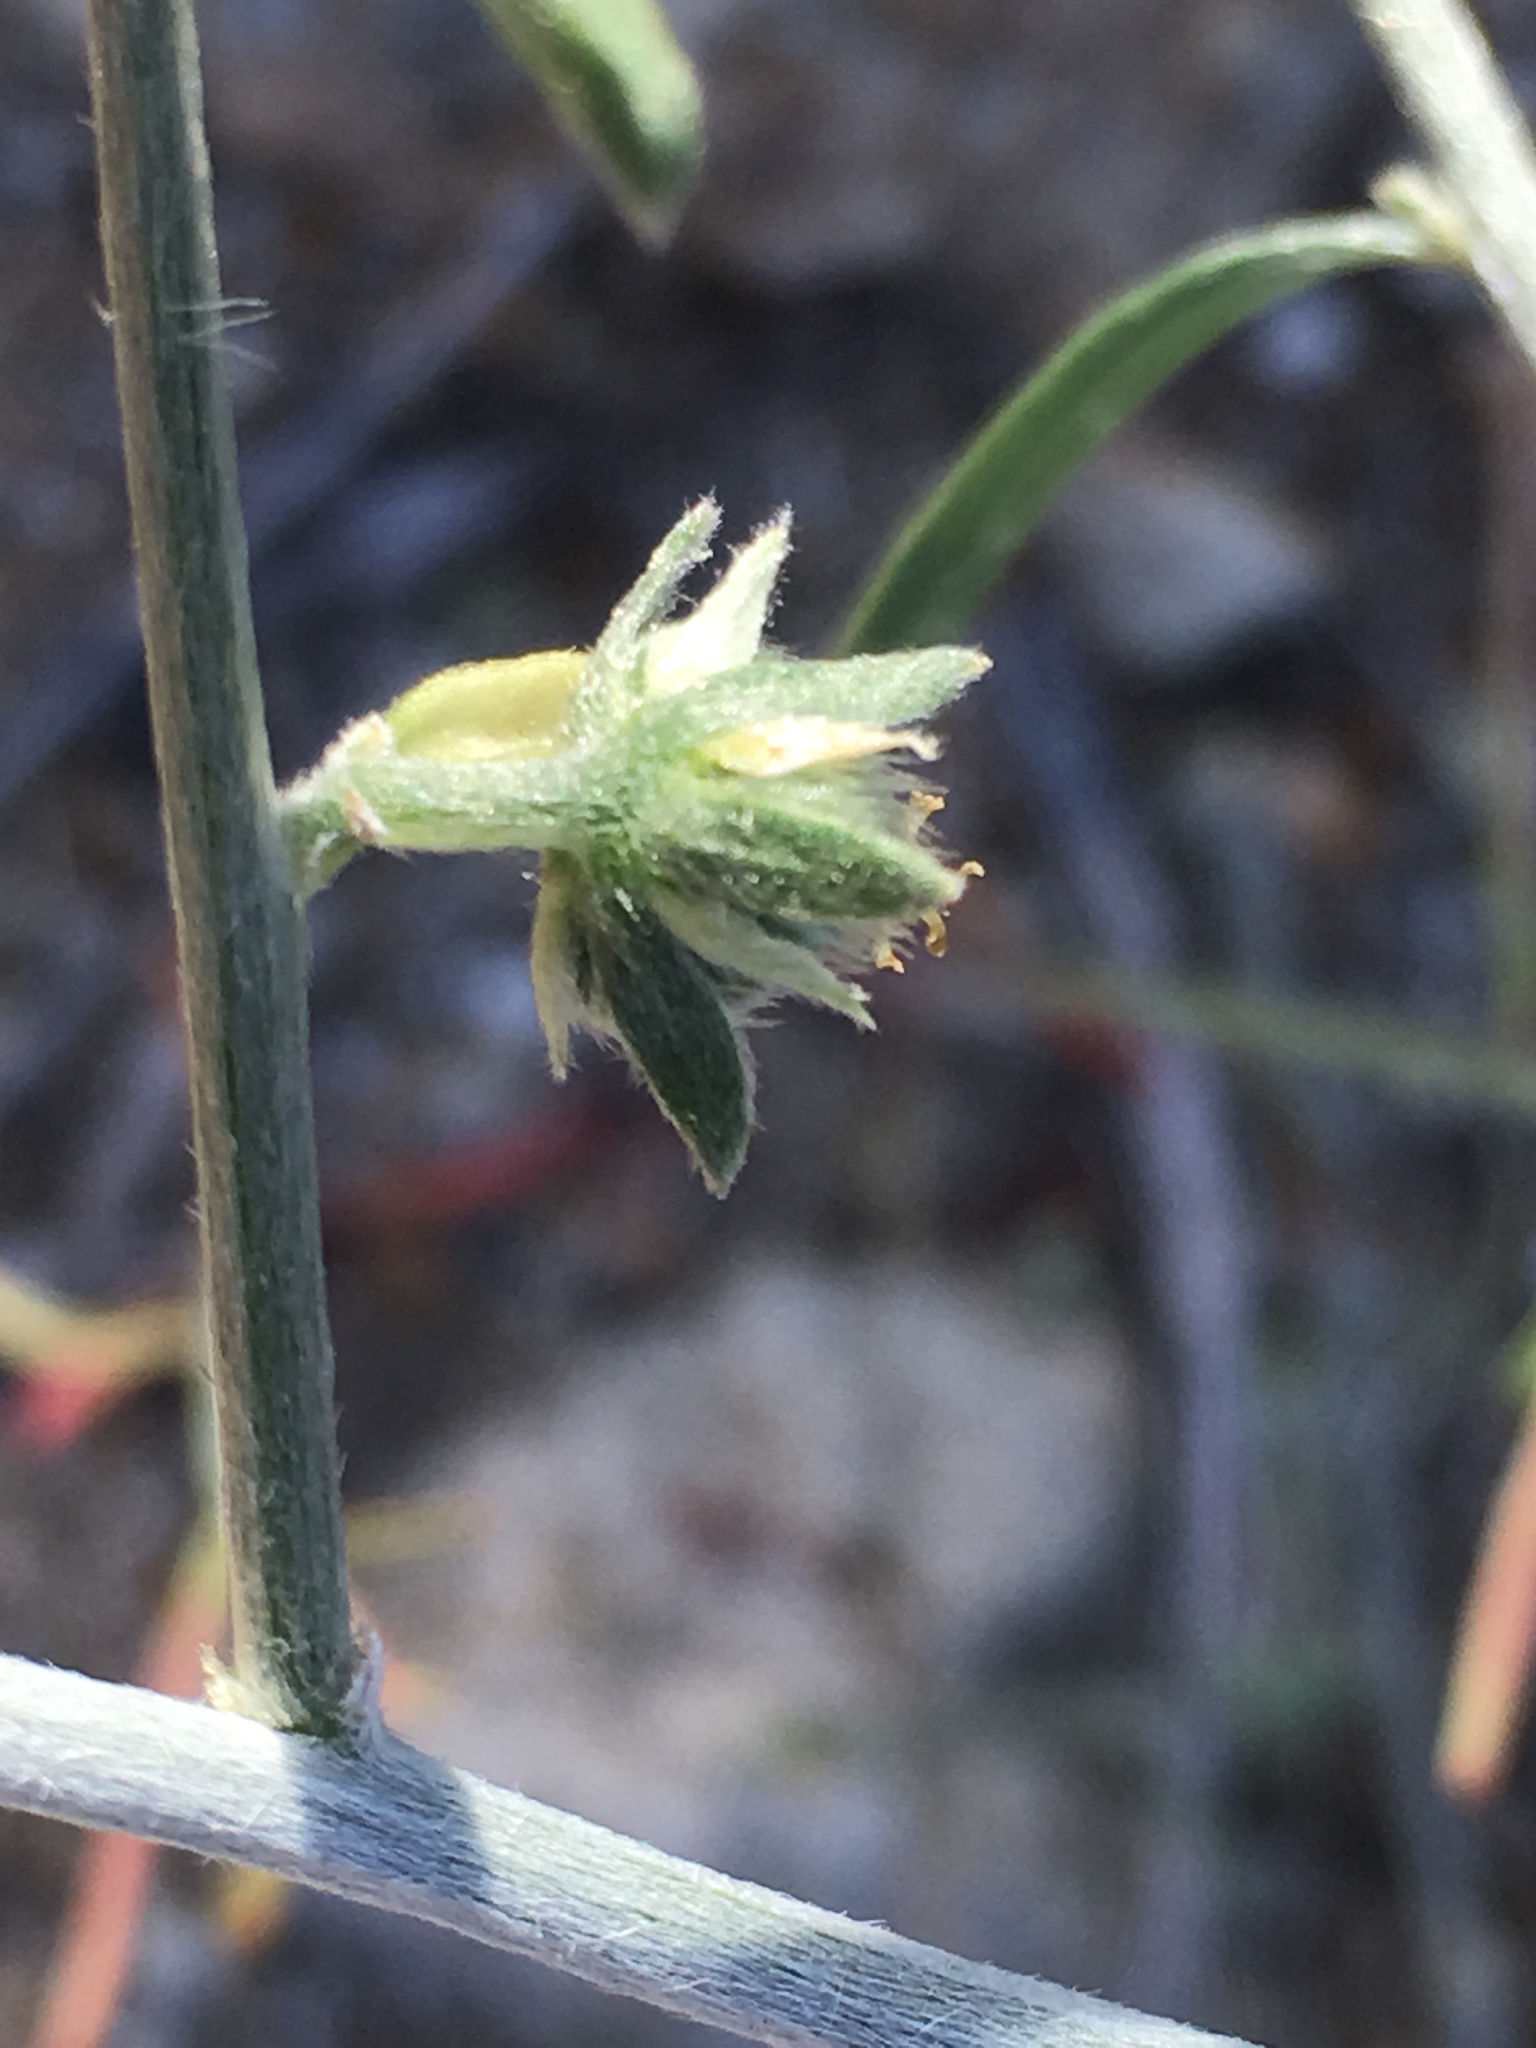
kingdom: Plantae
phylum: Tracheophyta
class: Magnoliopsida
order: Malpighiales
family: Euphorbiaceae
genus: Ditaxis
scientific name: Ditaxis lanceolata
